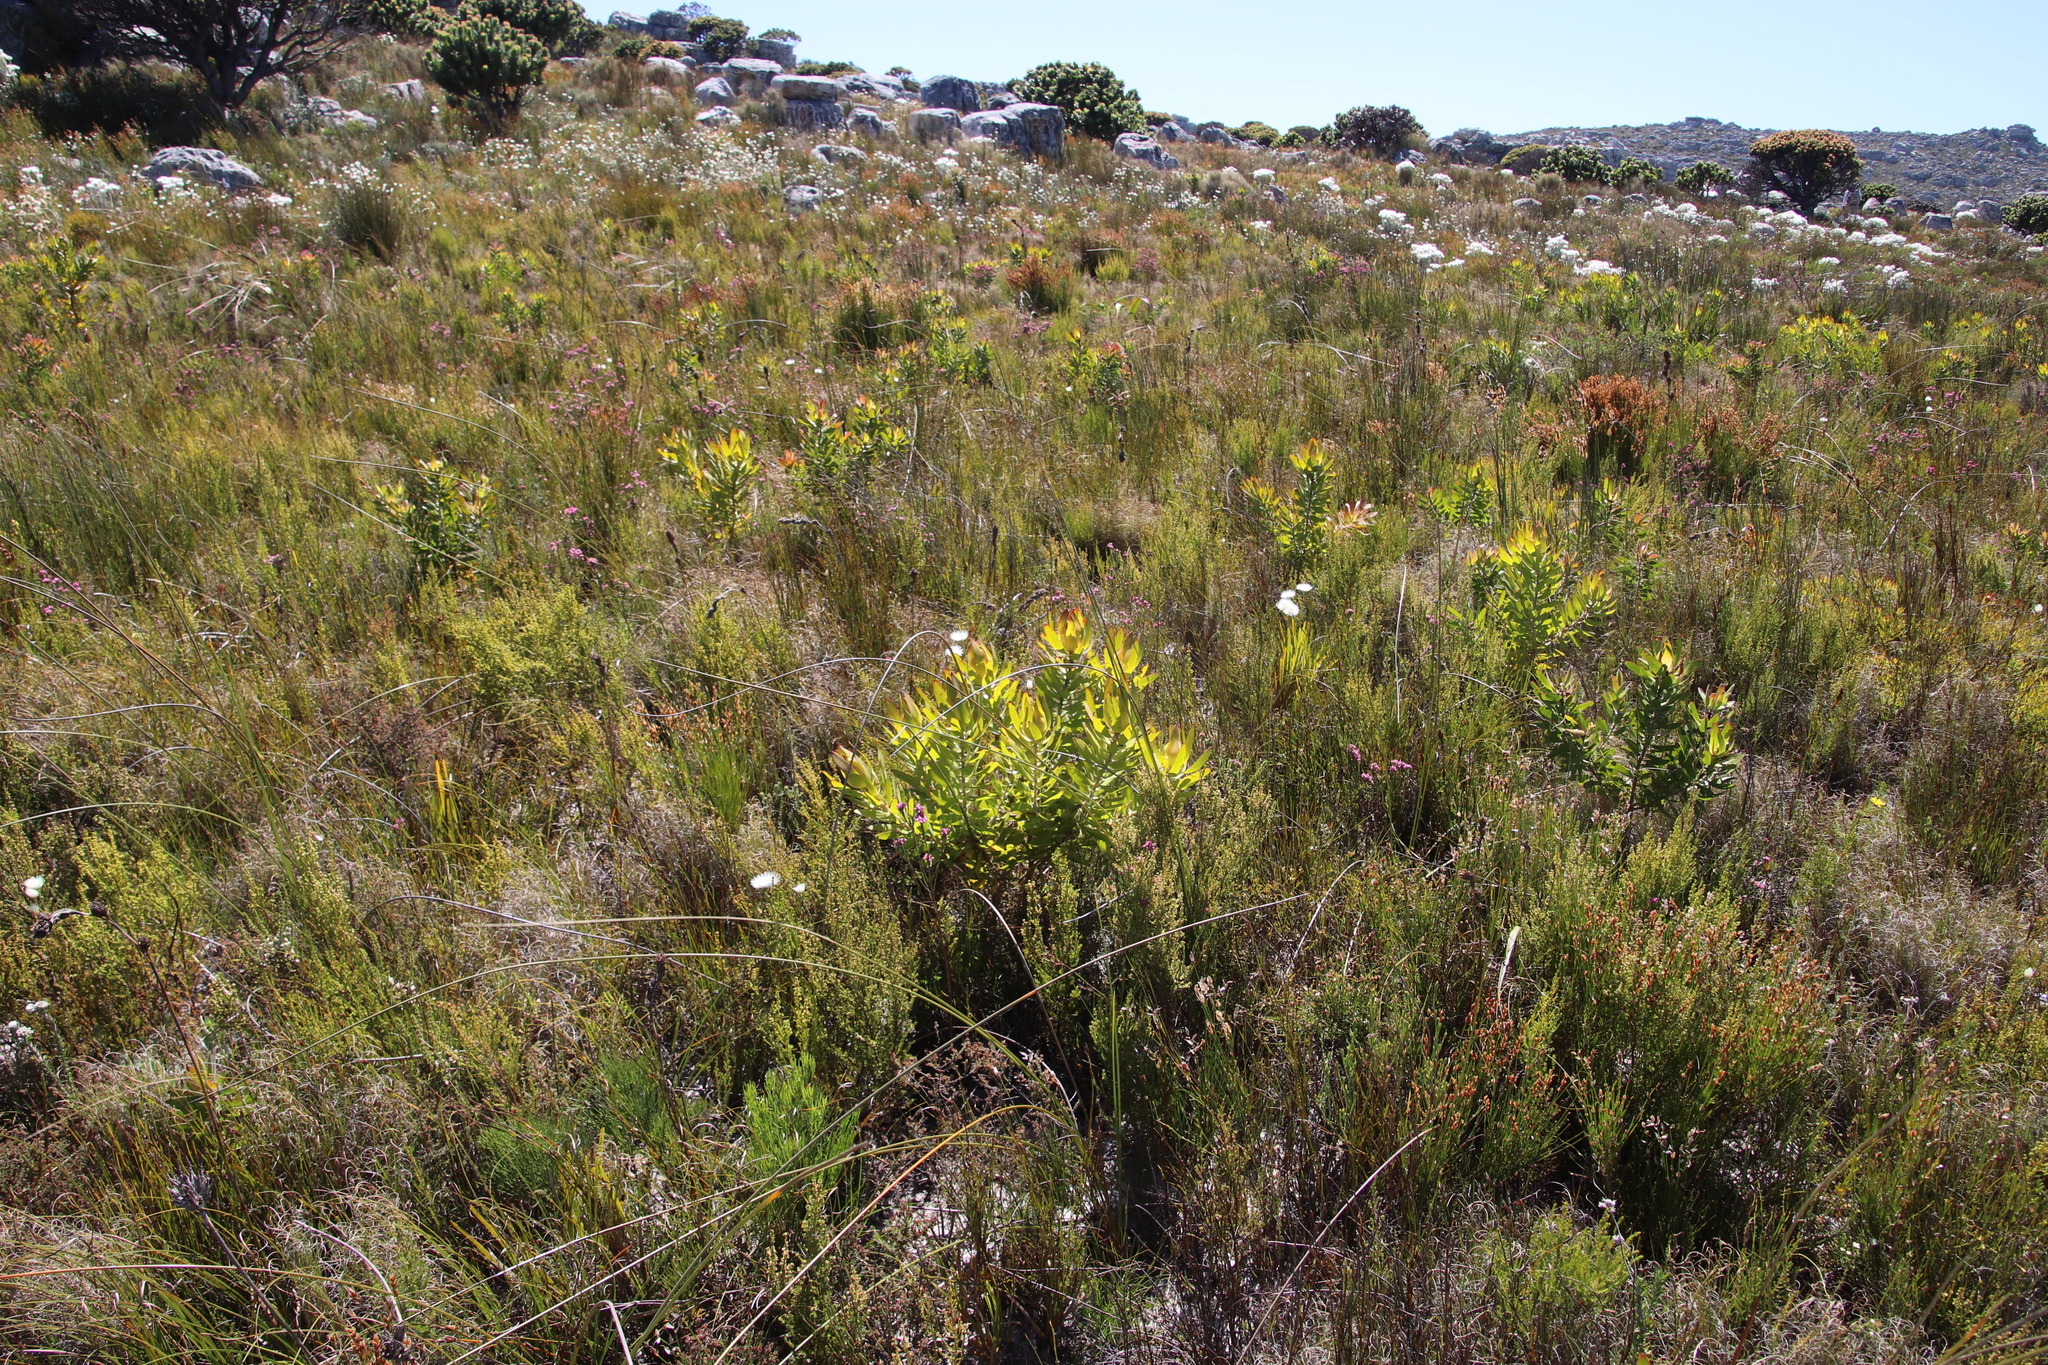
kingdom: Plantae
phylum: Tracheophyta
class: Magnoliopsida
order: Proteales
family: Proteaceae
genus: Leucadendron
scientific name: Leucadendron laureolum
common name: Golden sunshinebush
